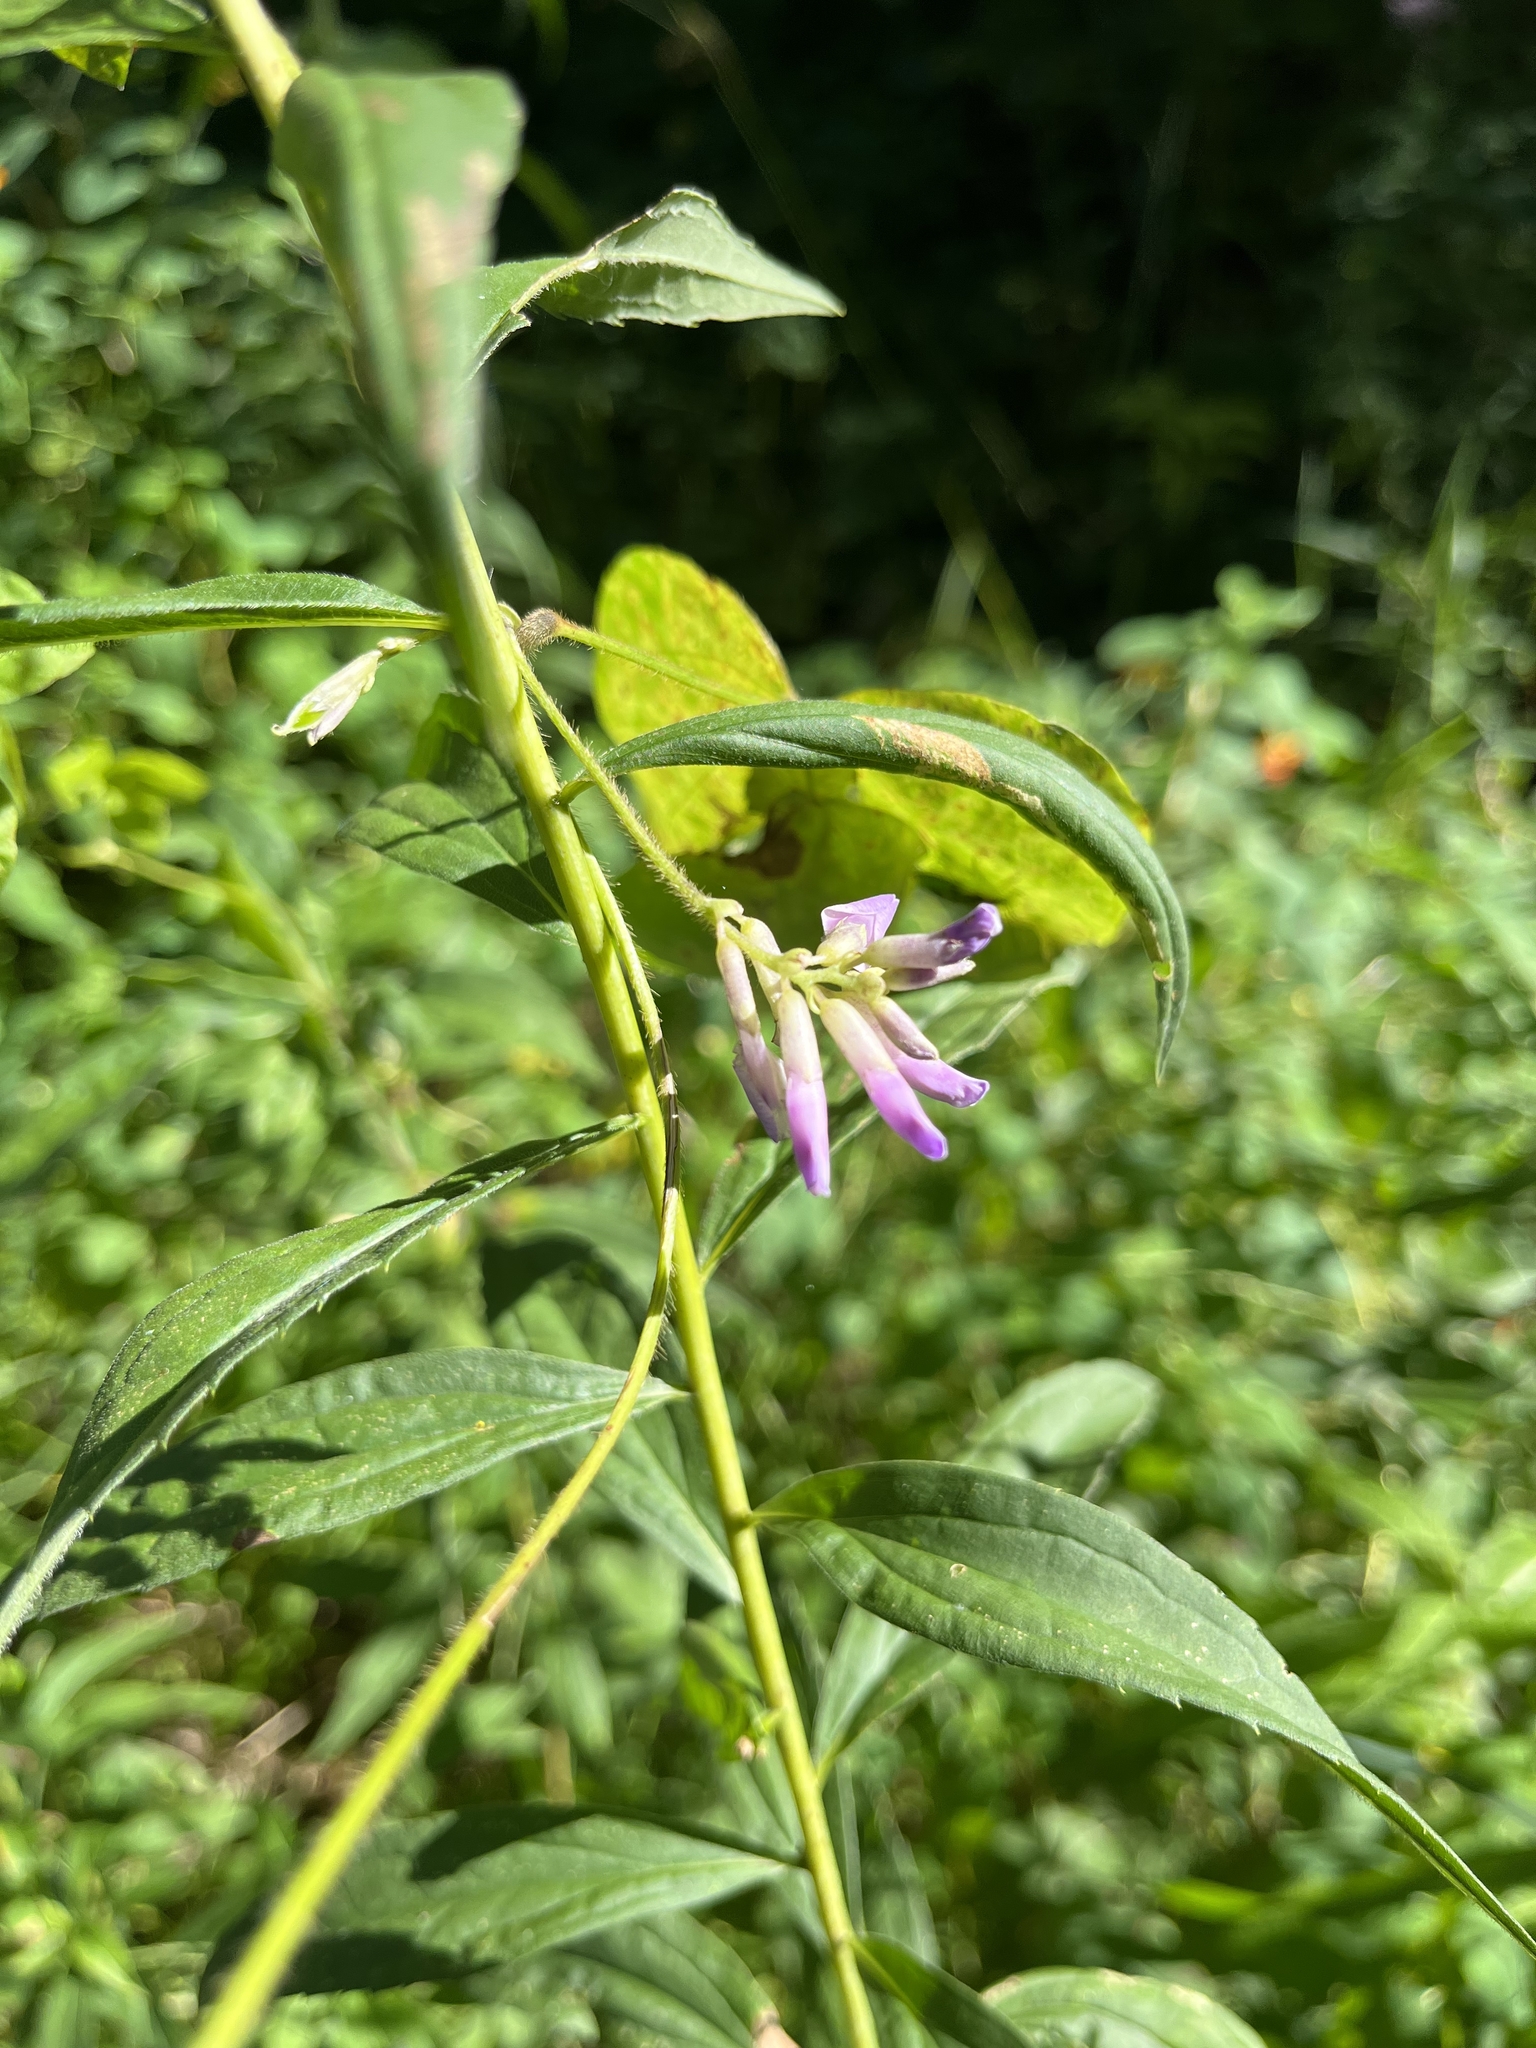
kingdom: Plantae
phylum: Tracheophyta
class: Magnoliopsida
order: Fabales
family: Fabaceae
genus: Amphicarpaea
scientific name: Amphicarpaea bracteata
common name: American hog peanut
